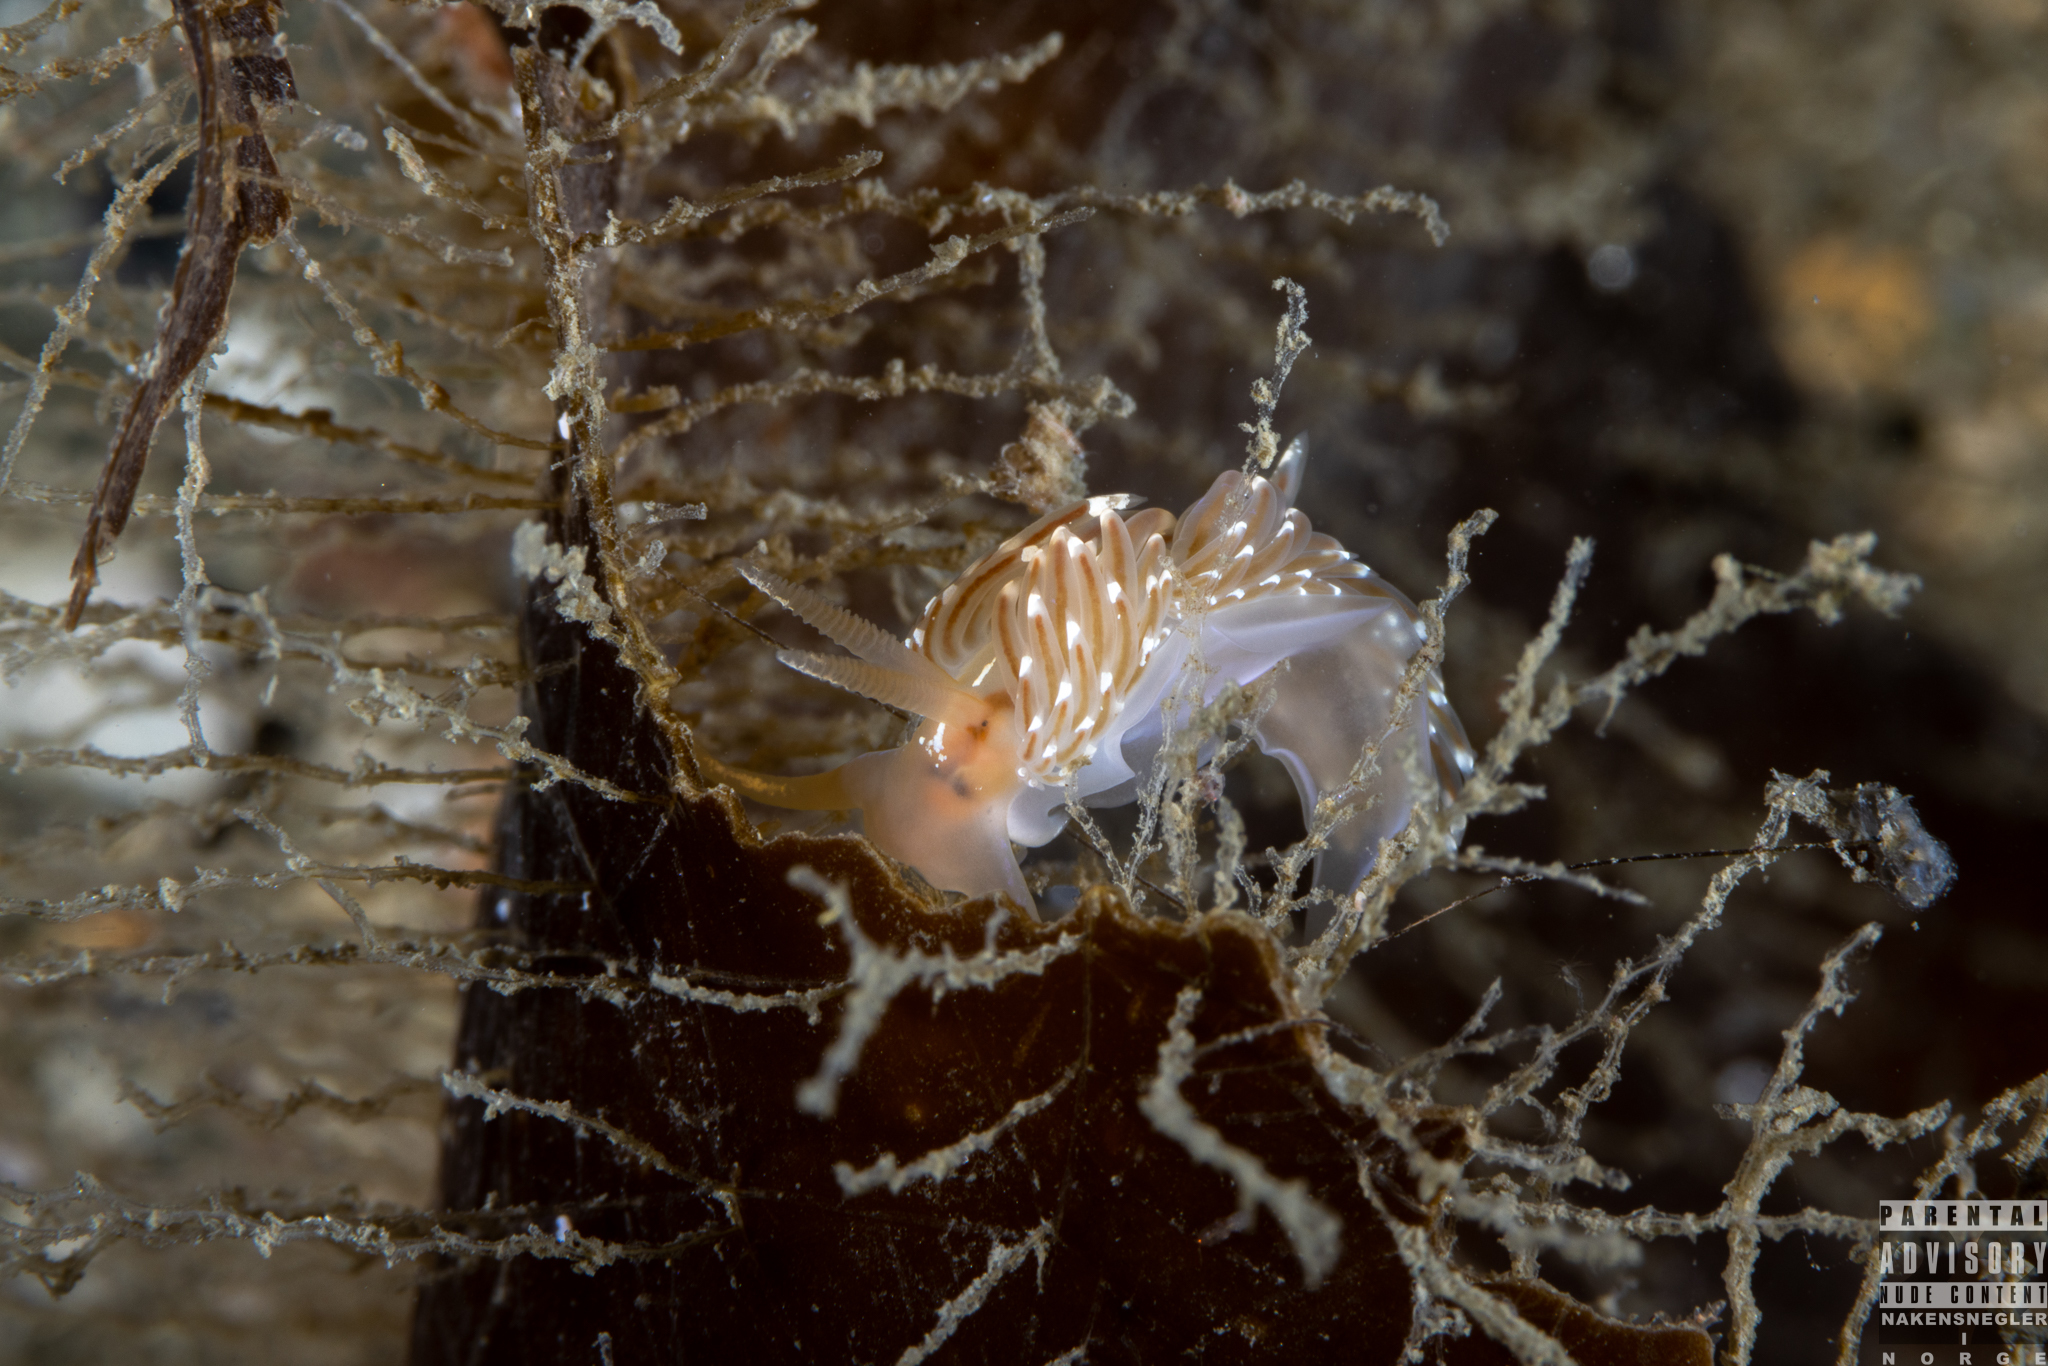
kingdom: Animalia
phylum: Mollusca
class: Gastropoda
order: Nudibranchia
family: Facelinidae
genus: Facelina
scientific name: Facelina bostoniensis
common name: Boston facelina
